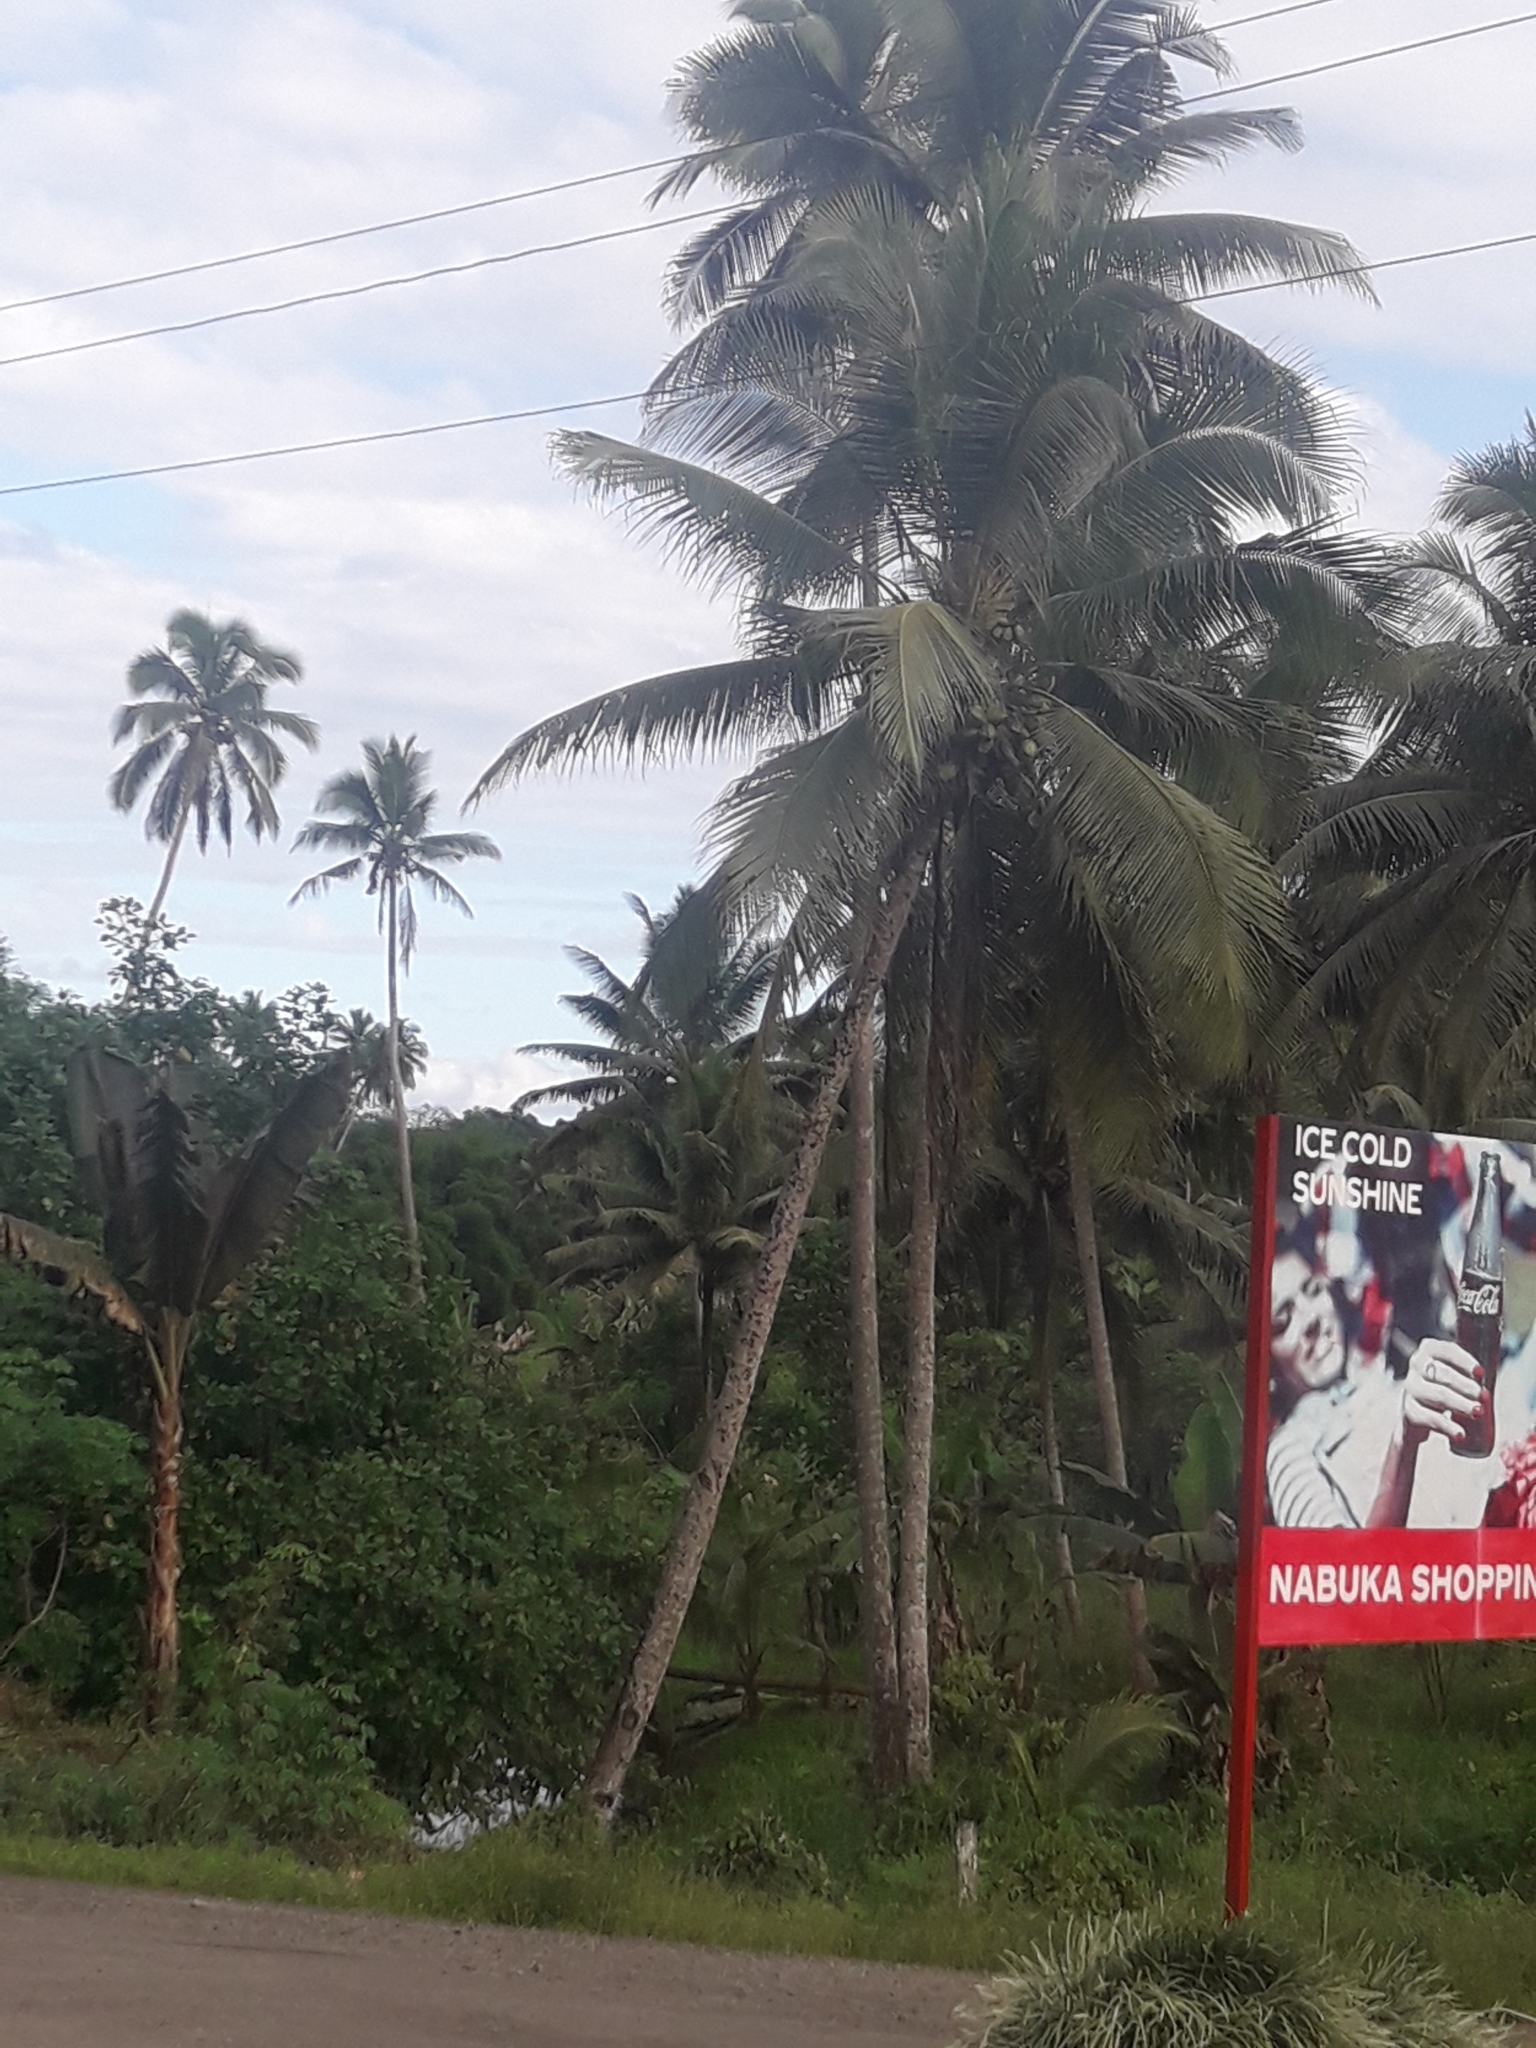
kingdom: Plantae
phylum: Tracheophyta
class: Liliopsida
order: Arecales
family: Arecaceae
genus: Cocos
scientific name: Cocos nucifera
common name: Coconut palm
